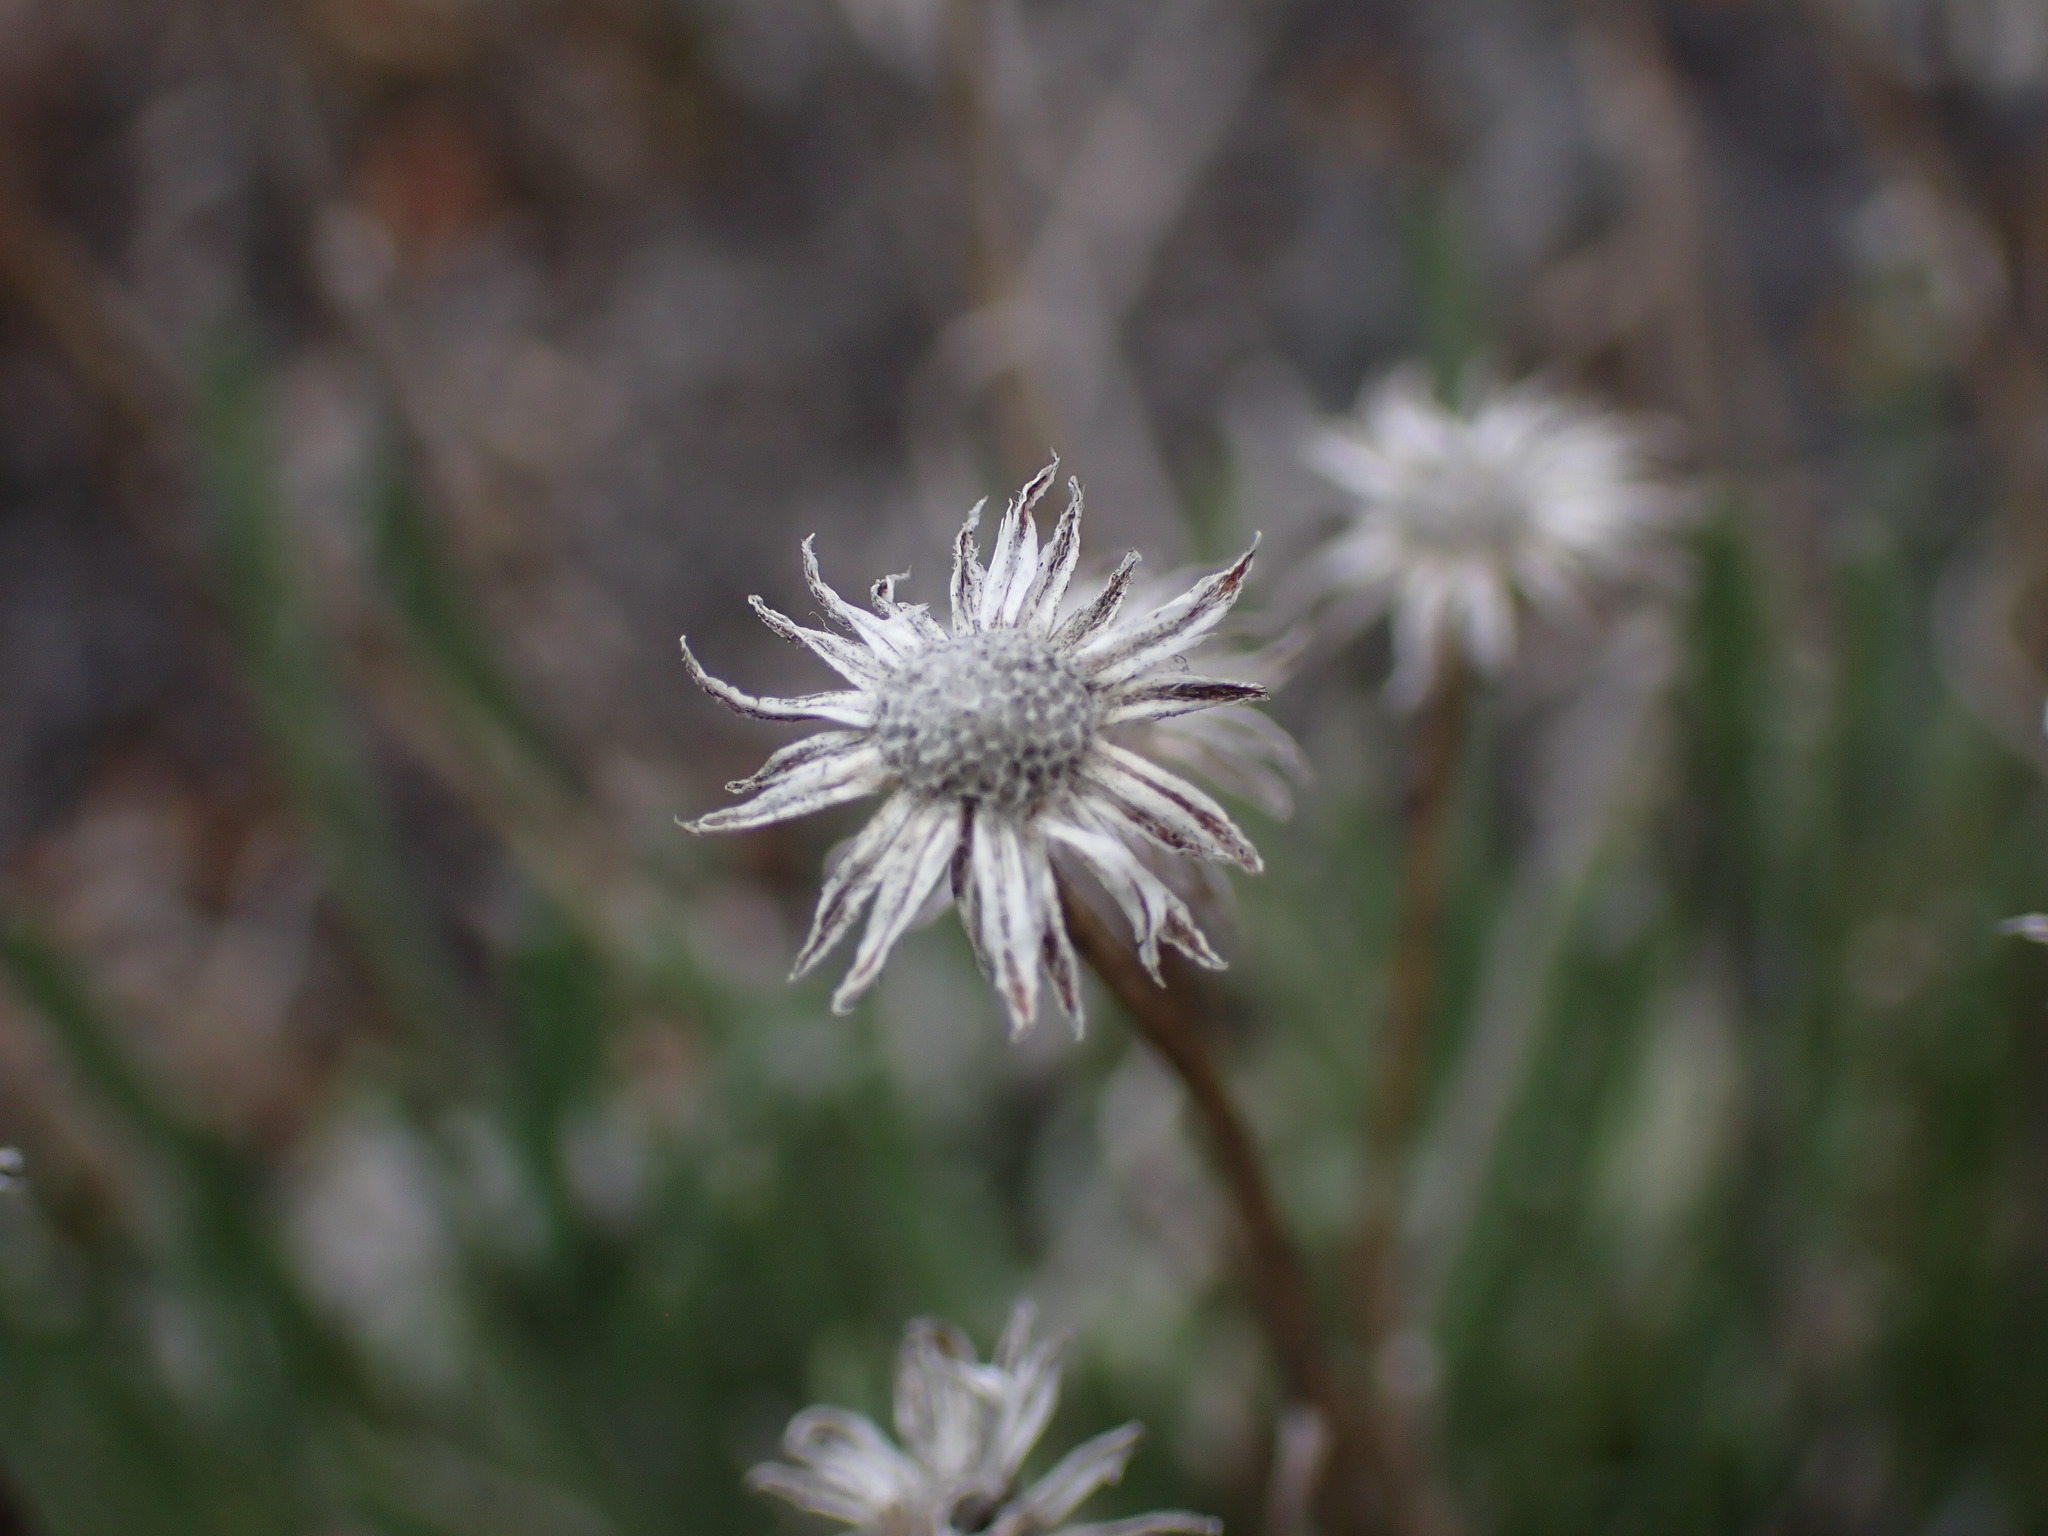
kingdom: Plantae
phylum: Tracheophyta
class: Magnoliopsida
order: Asterales
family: Asteraceae
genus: Erigeron
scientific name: Erigeron linearis
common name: Desert yellow fleabane
